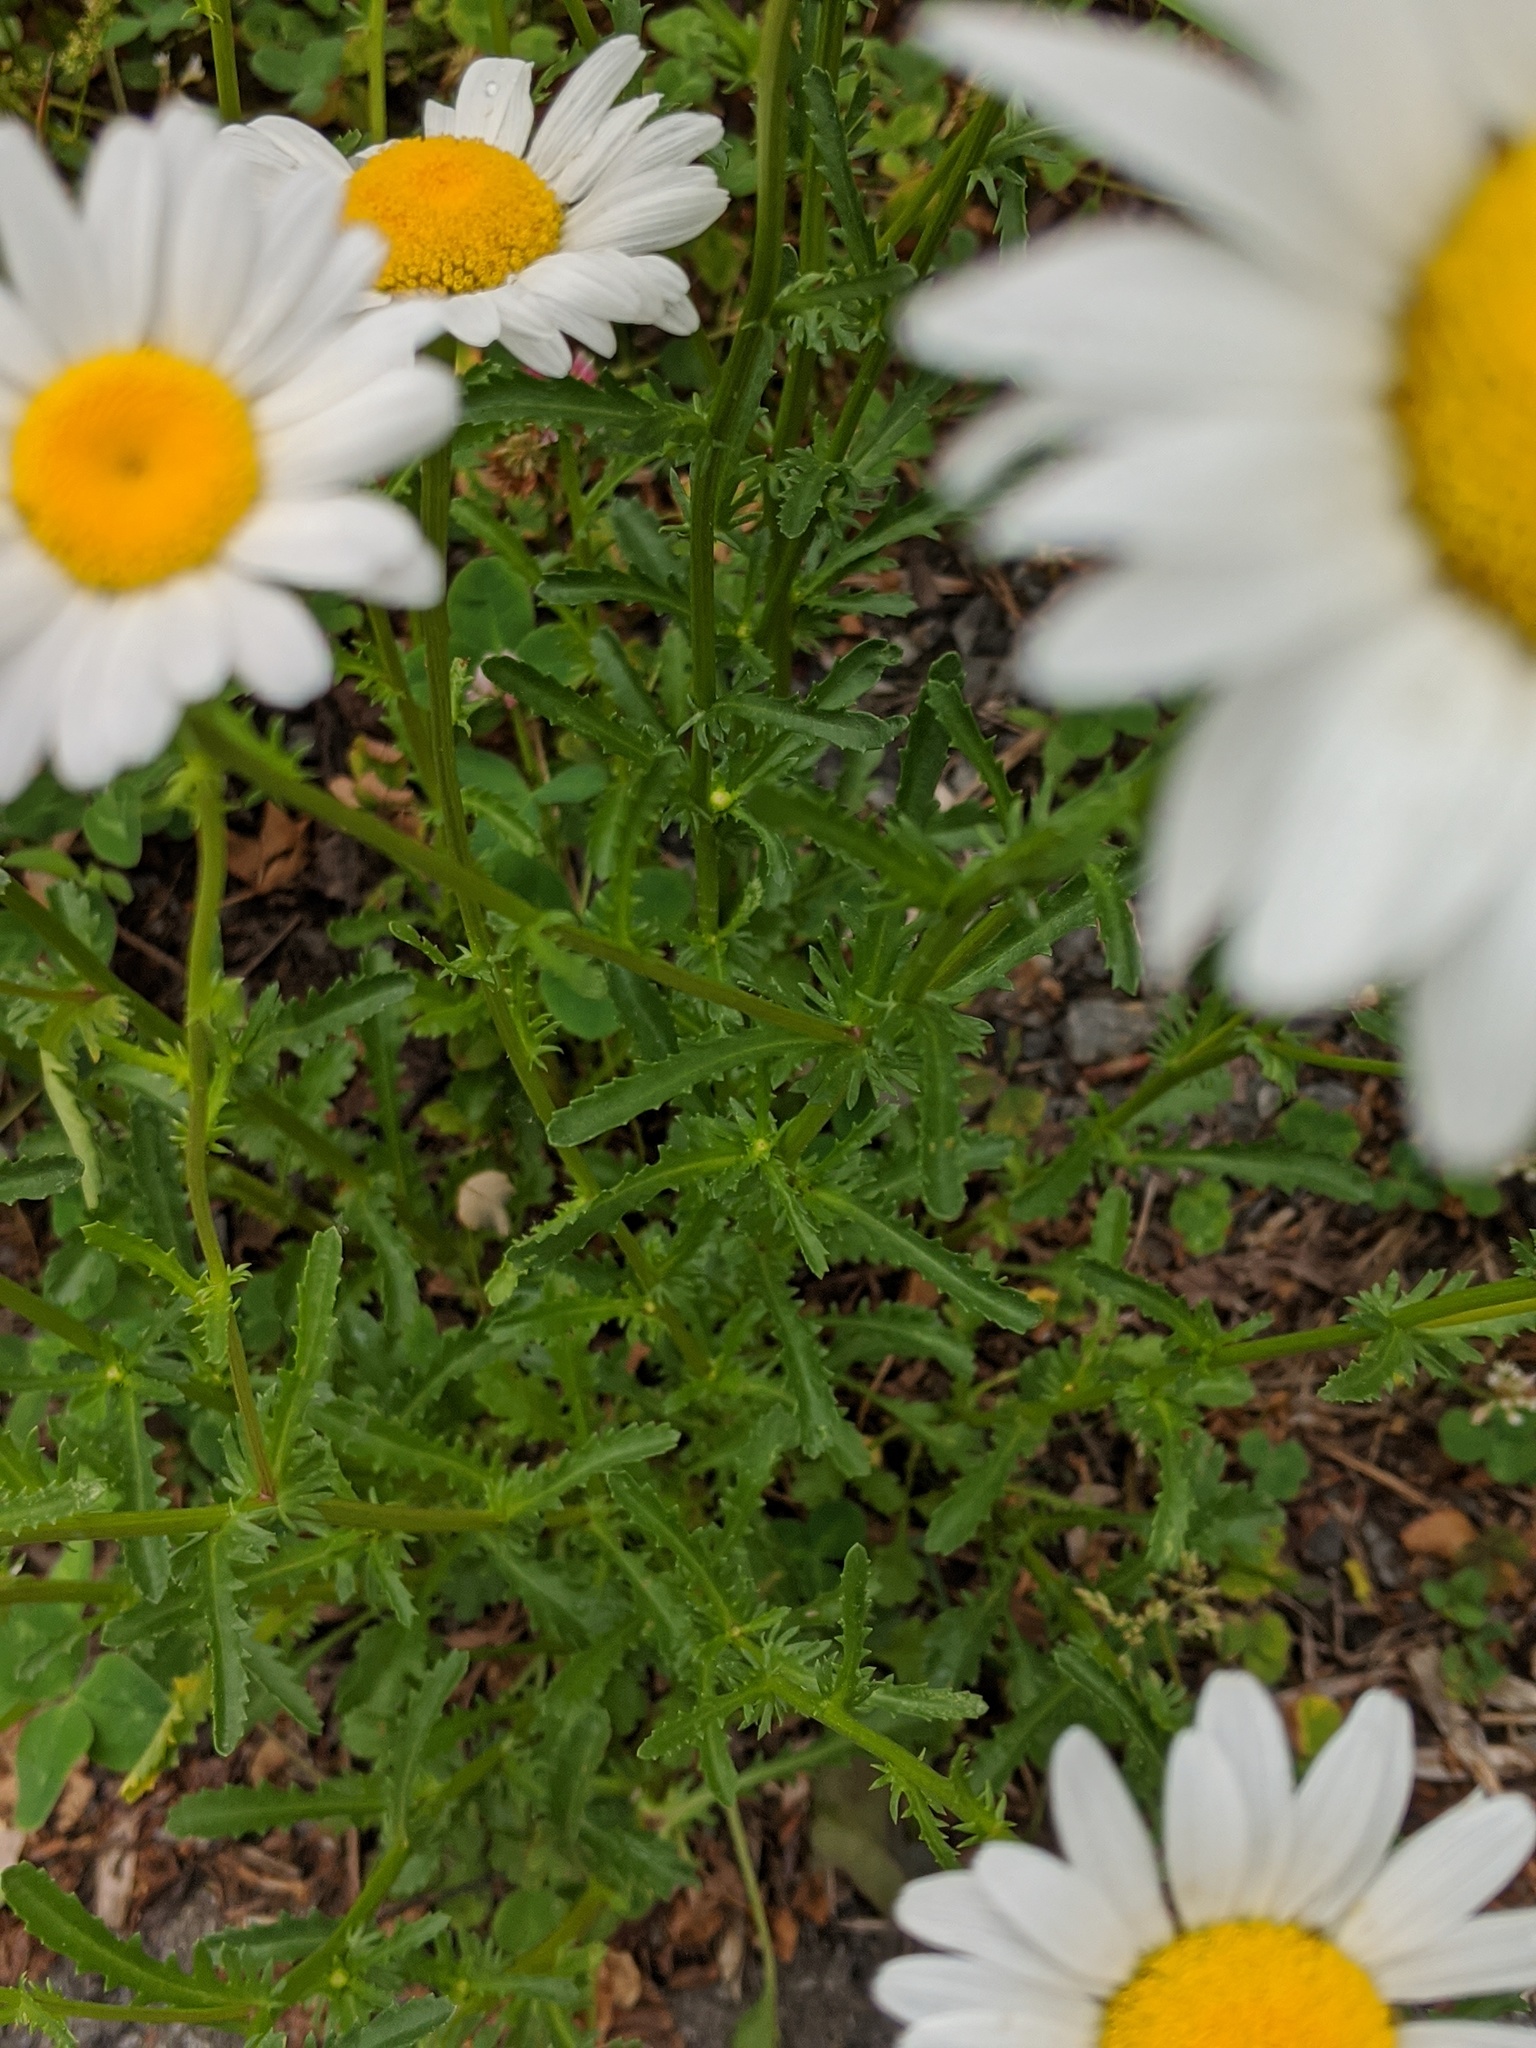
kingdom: Plantae
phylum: Tracheophyta
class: Magnoliopsida
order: Asterales
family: Asteraceae
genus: Leucanthemum
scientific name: Leucanthemum vulgare
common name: Oxeye daisy
